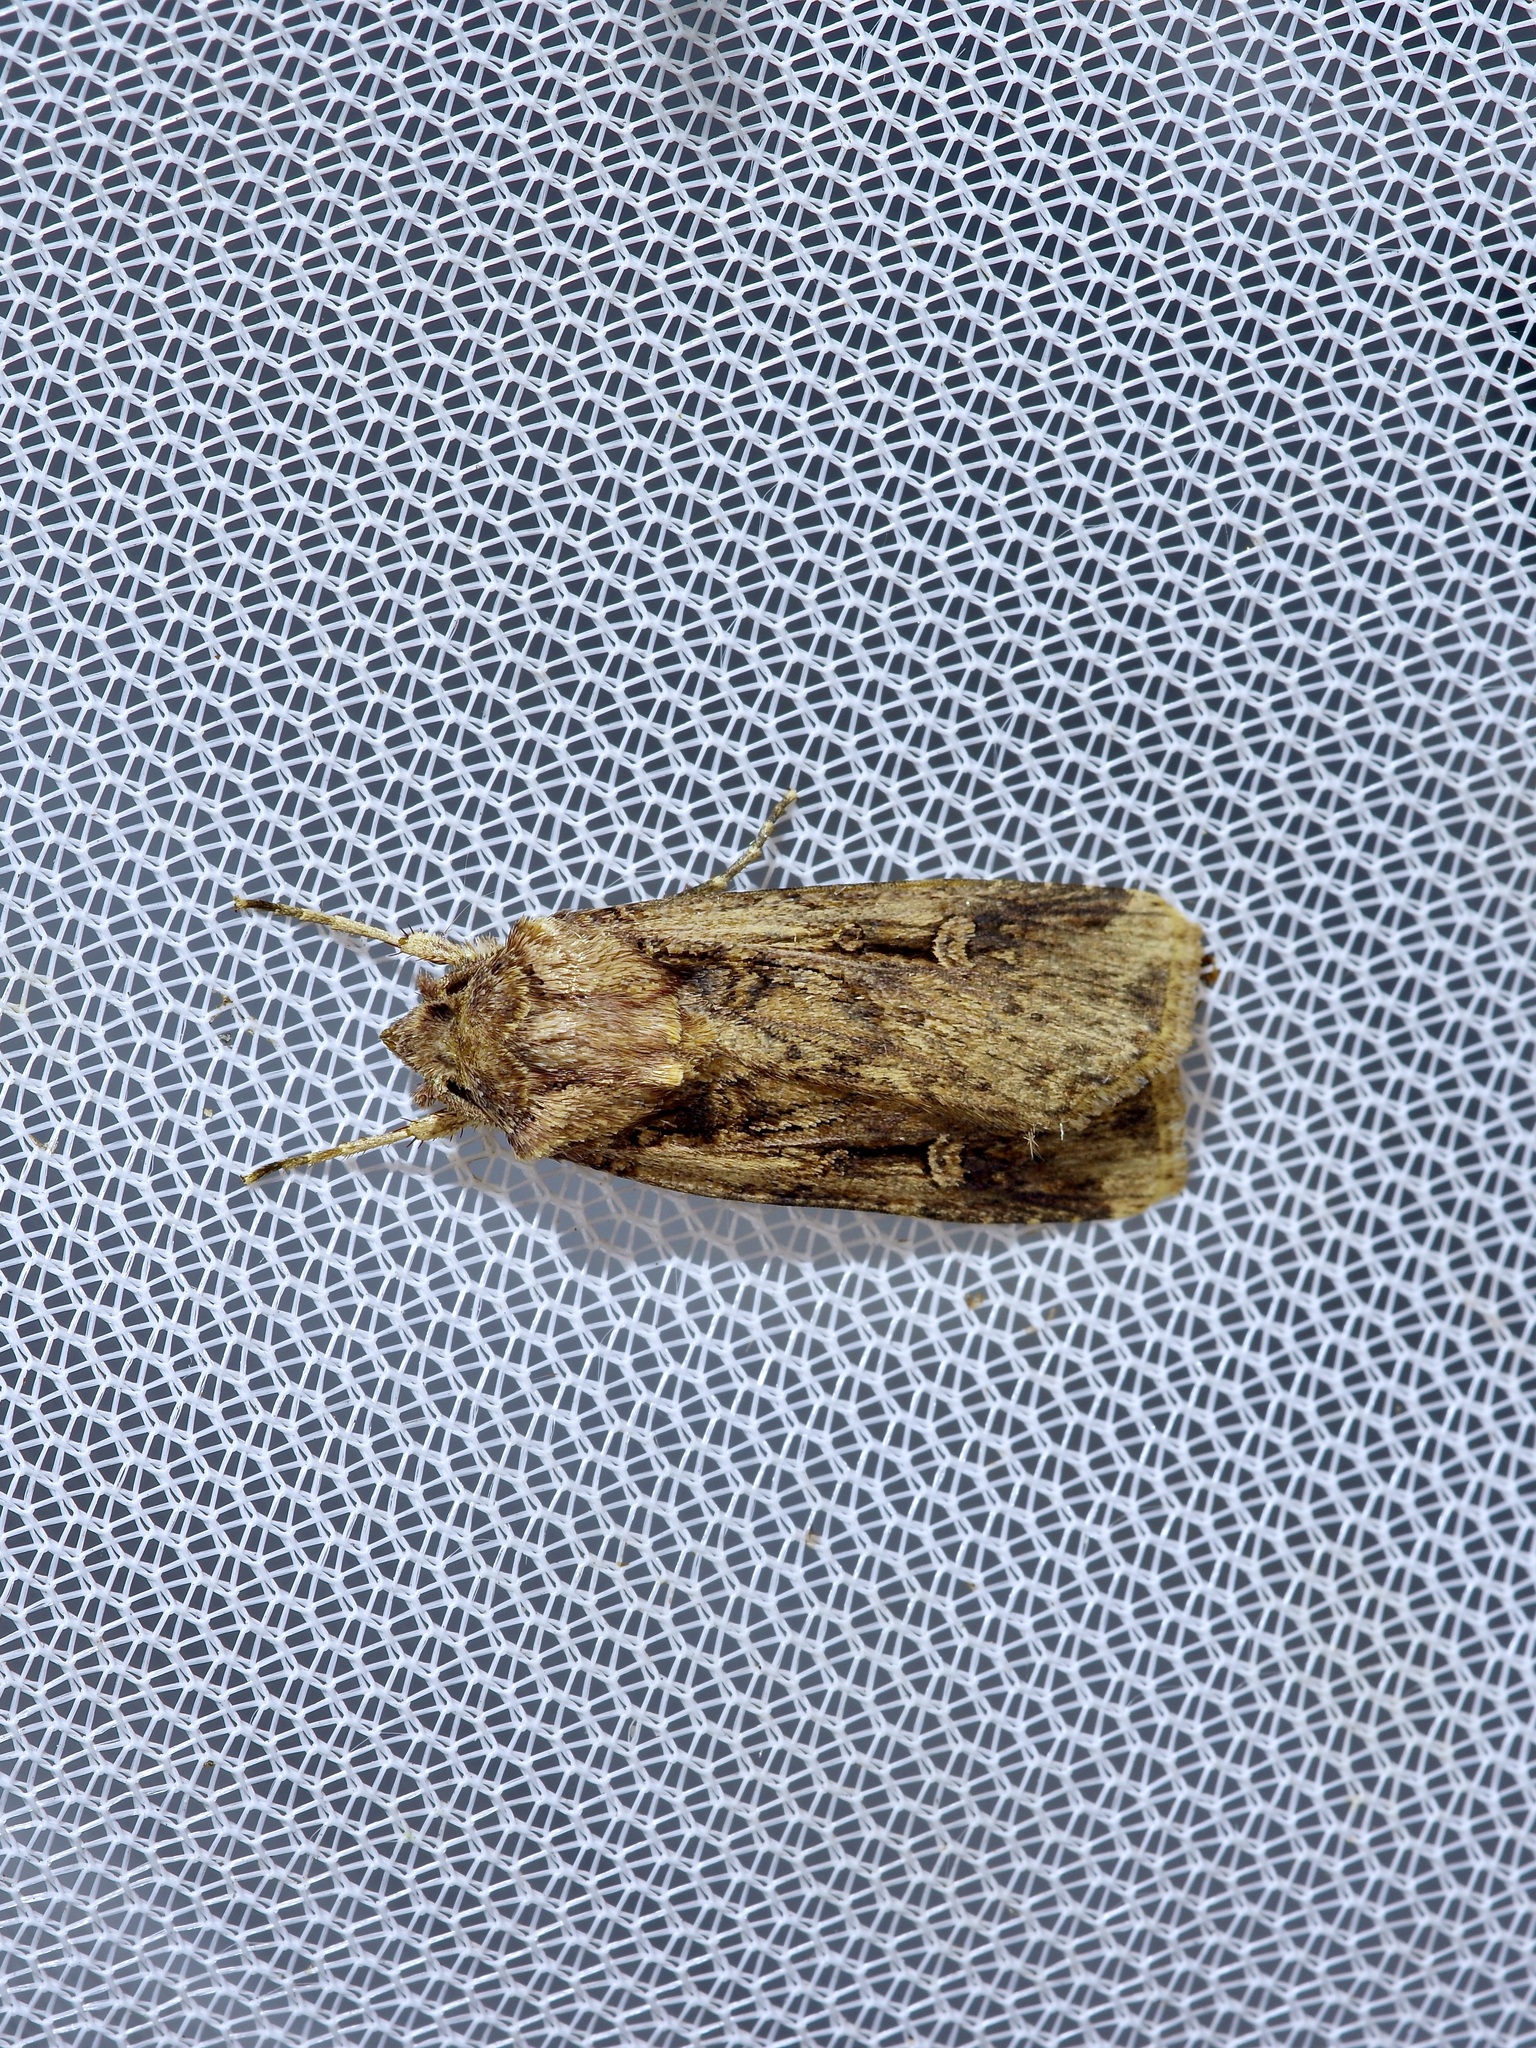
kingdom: Animalia
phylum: Arthropoda
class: Insecta
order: Lepidoptera
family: Noctuidae
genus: Feltia
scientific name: Feltia subterranea
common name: Granulate cutworm
